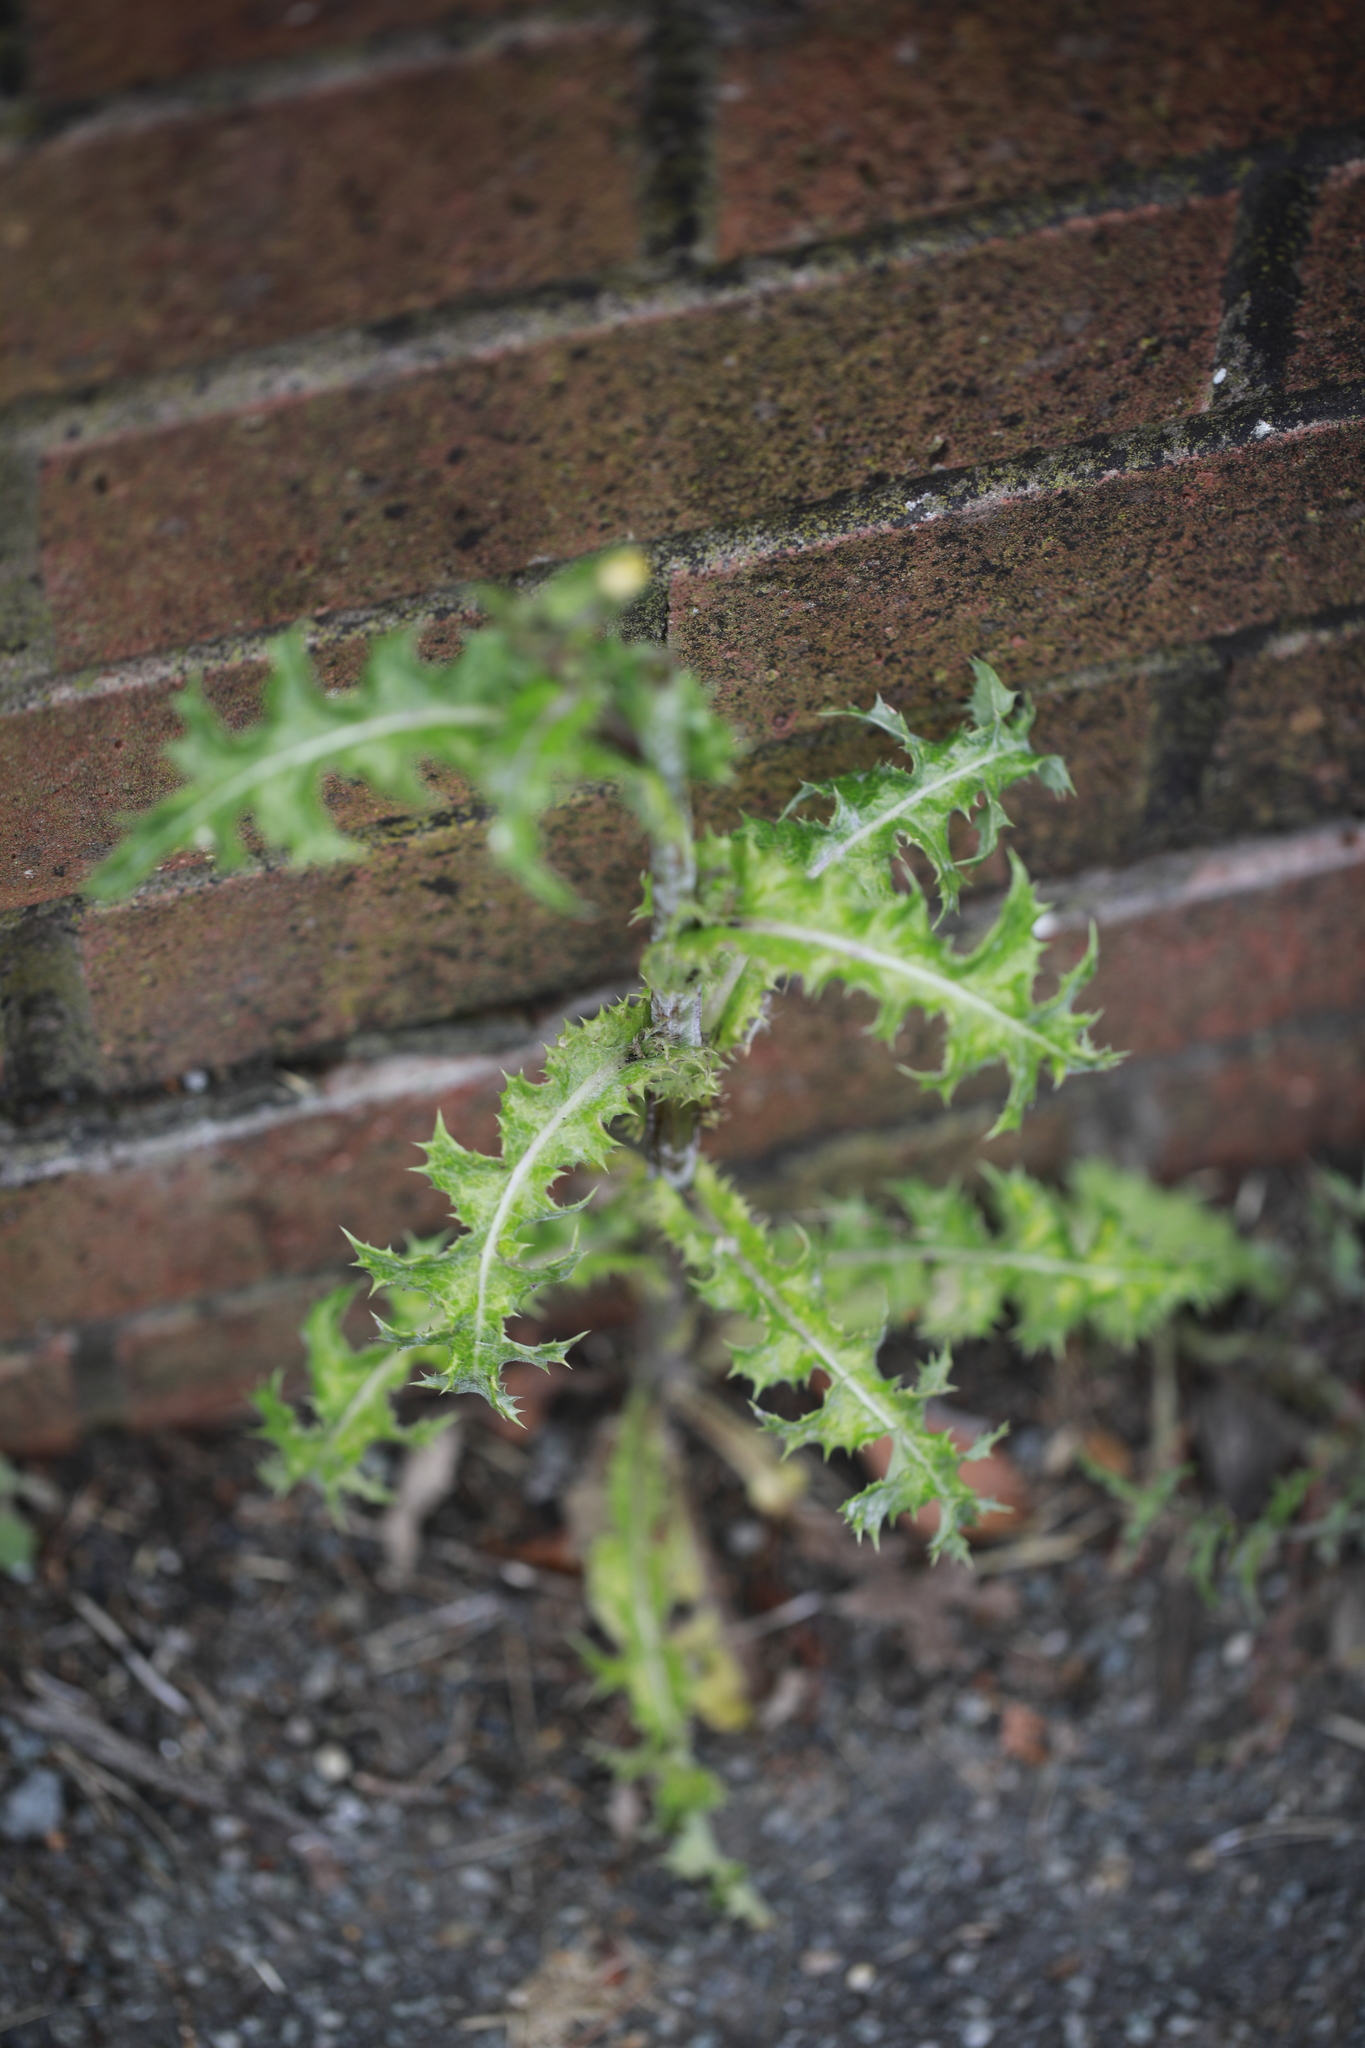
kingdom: Plantae
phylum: Tracheophyta
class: Magnoliopsida
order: Asterales
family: Asteraceae
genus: Sonchus
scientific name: Sonchus asper
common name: Prickly sow-thistle
